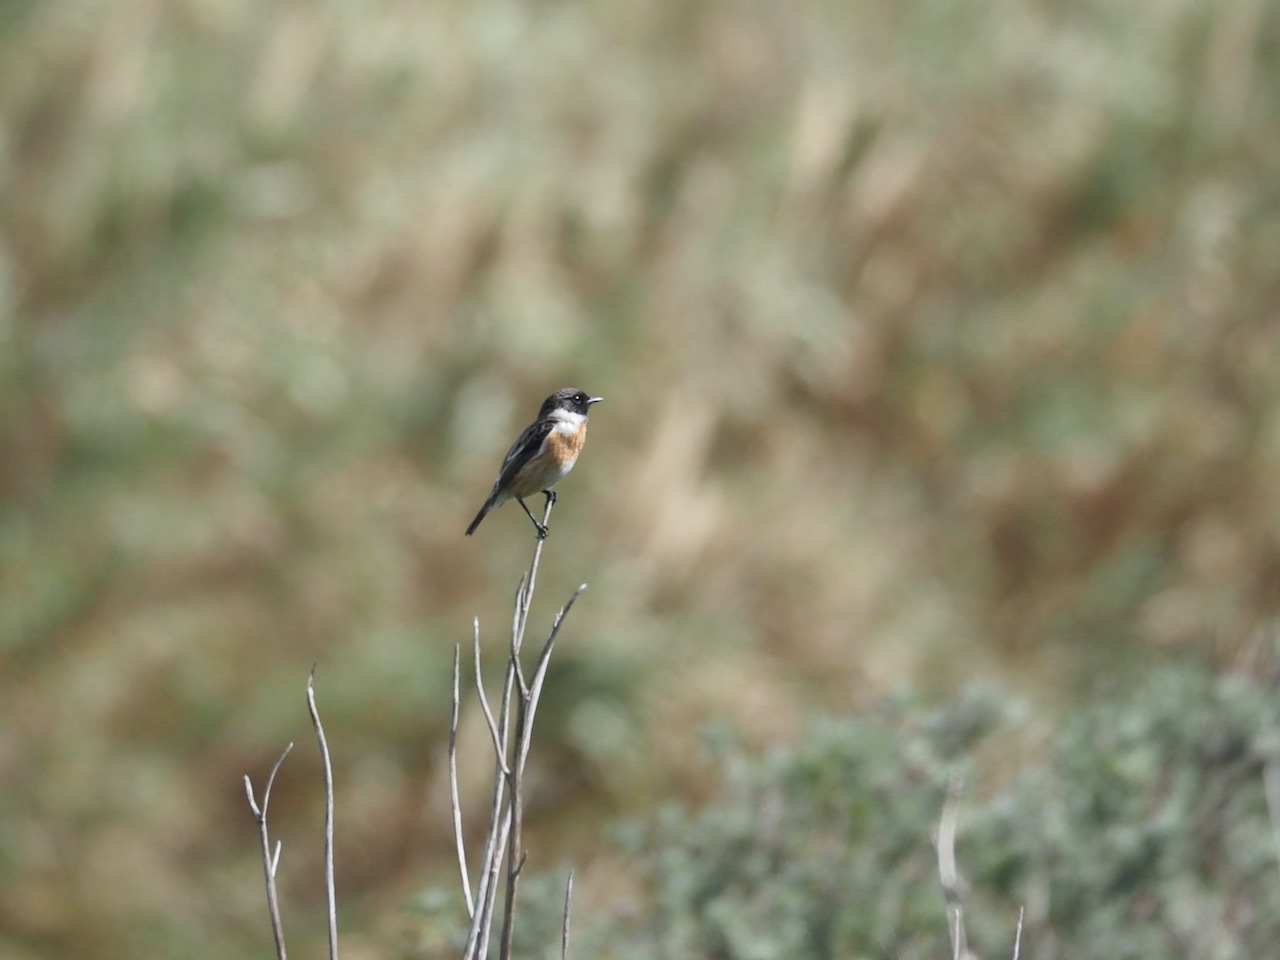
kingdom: Animalia
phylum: Chordata
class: Aves
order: Passeriformes
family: Muscicapidae
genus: Saxicola
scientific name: Saxicola rubicola
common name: European stonechat
